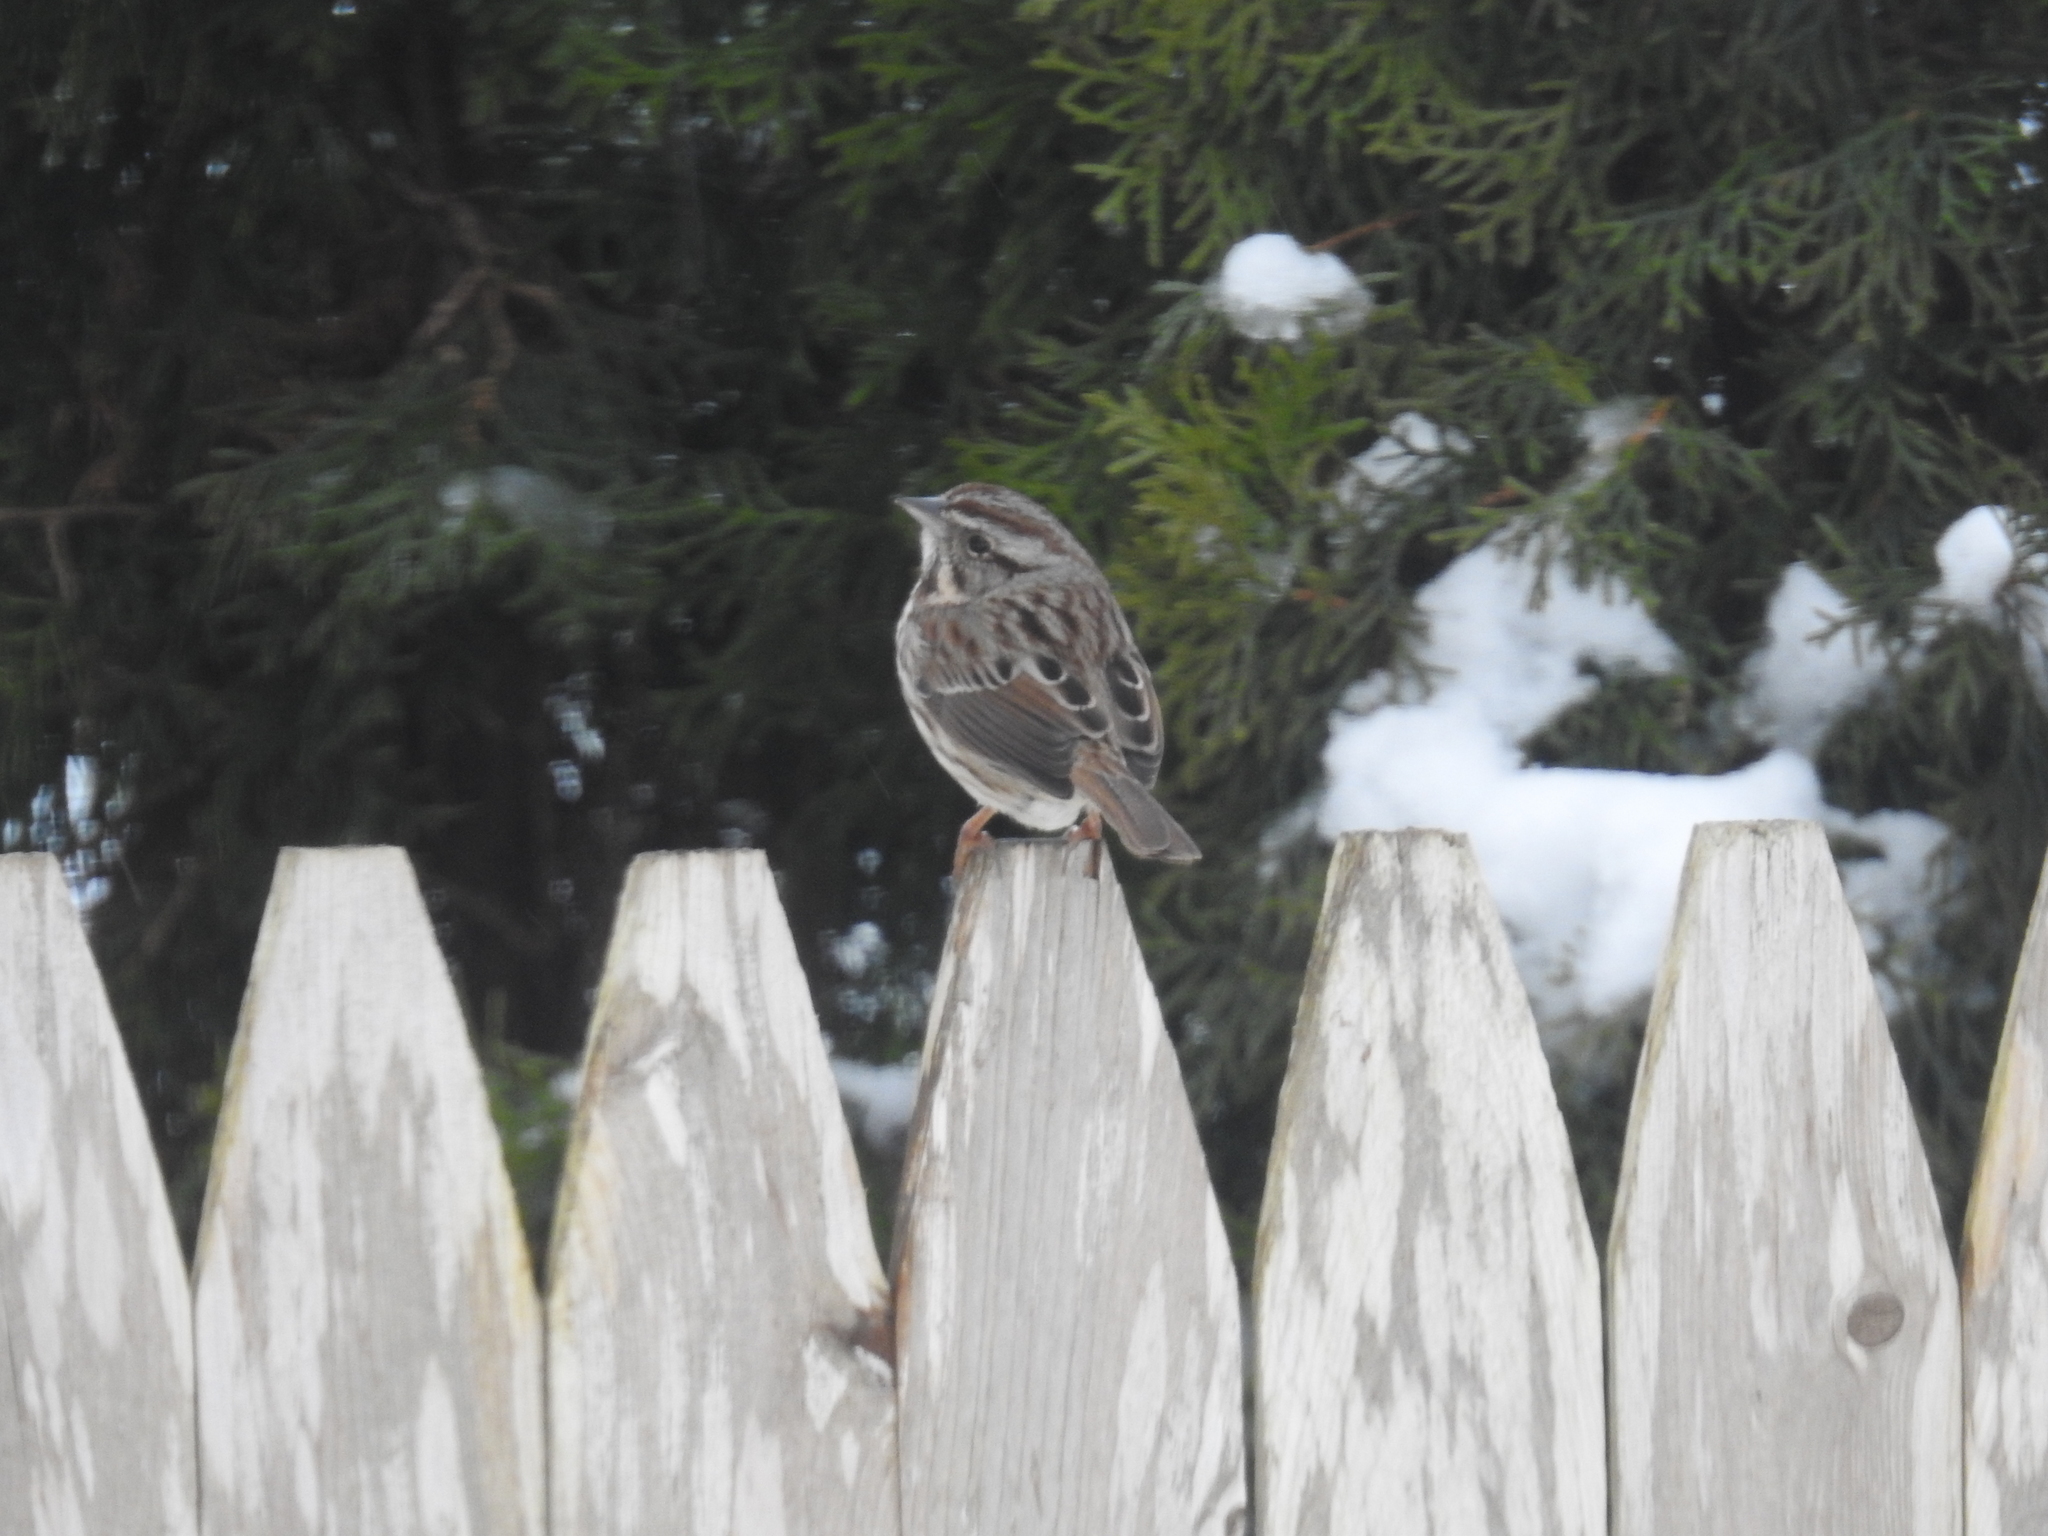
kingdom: Animalia
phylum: Chordata
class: Aves
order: Passeriformes
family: Passerellidae
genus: Melospiza
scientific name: Melospiza melodia
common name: Song sparrow
